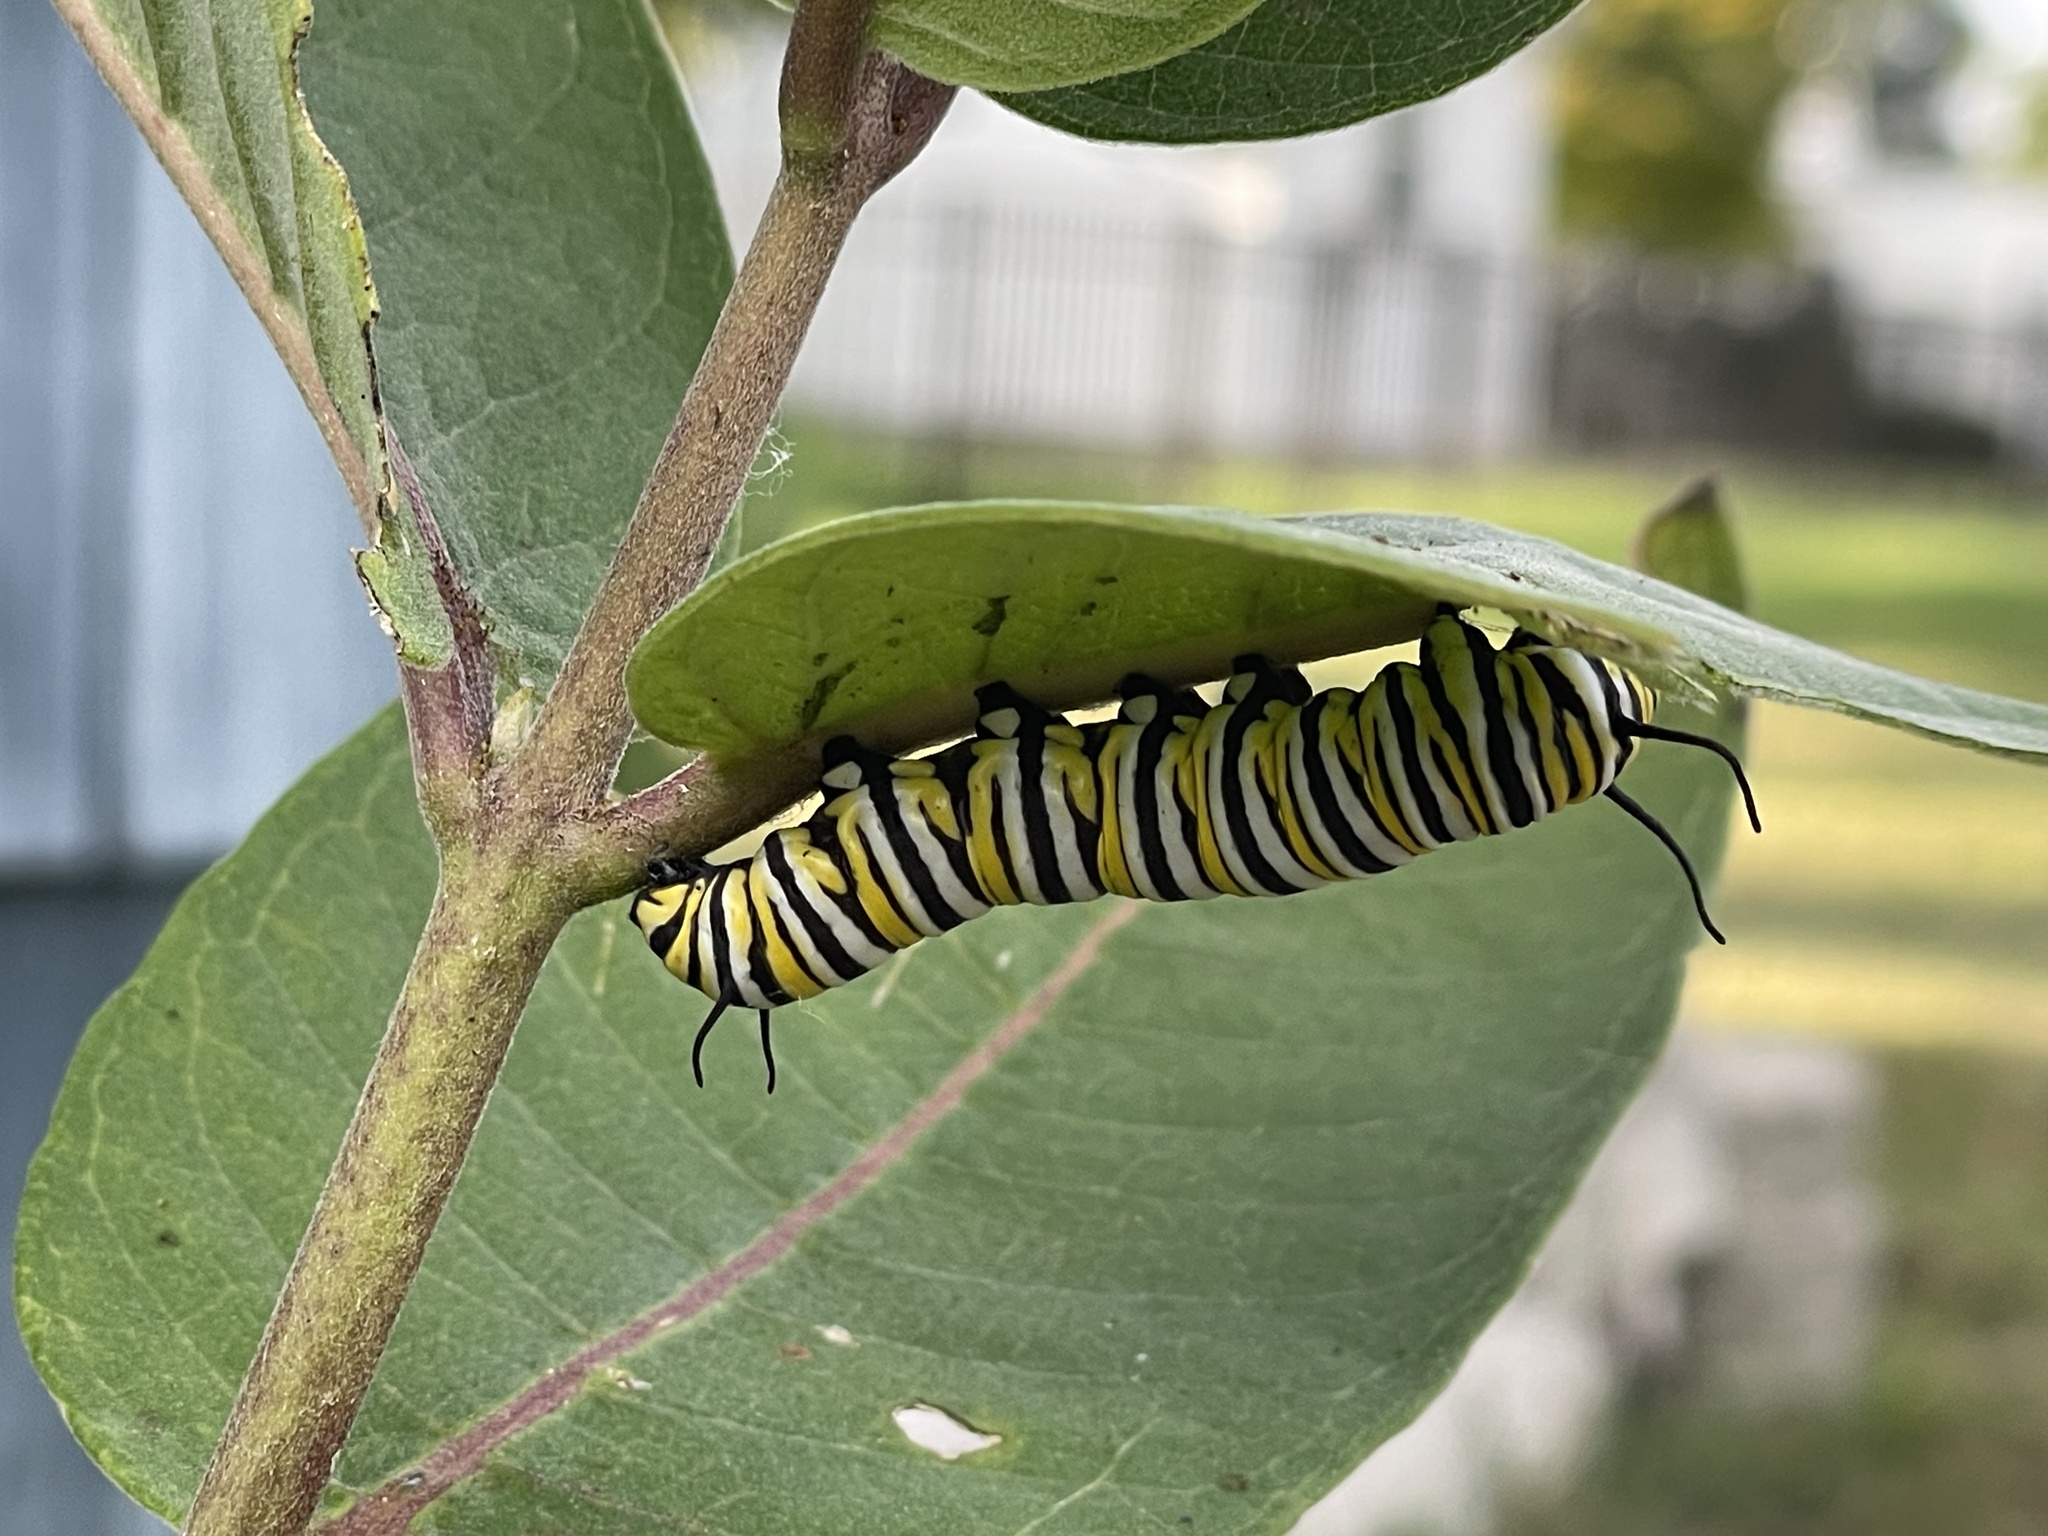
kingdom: Animalia
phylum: Arthropoda
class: Insecta
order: Lepidoptera
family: Nymphalidae
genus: Danaus
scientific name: Danaus plexippus
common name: Monarch
